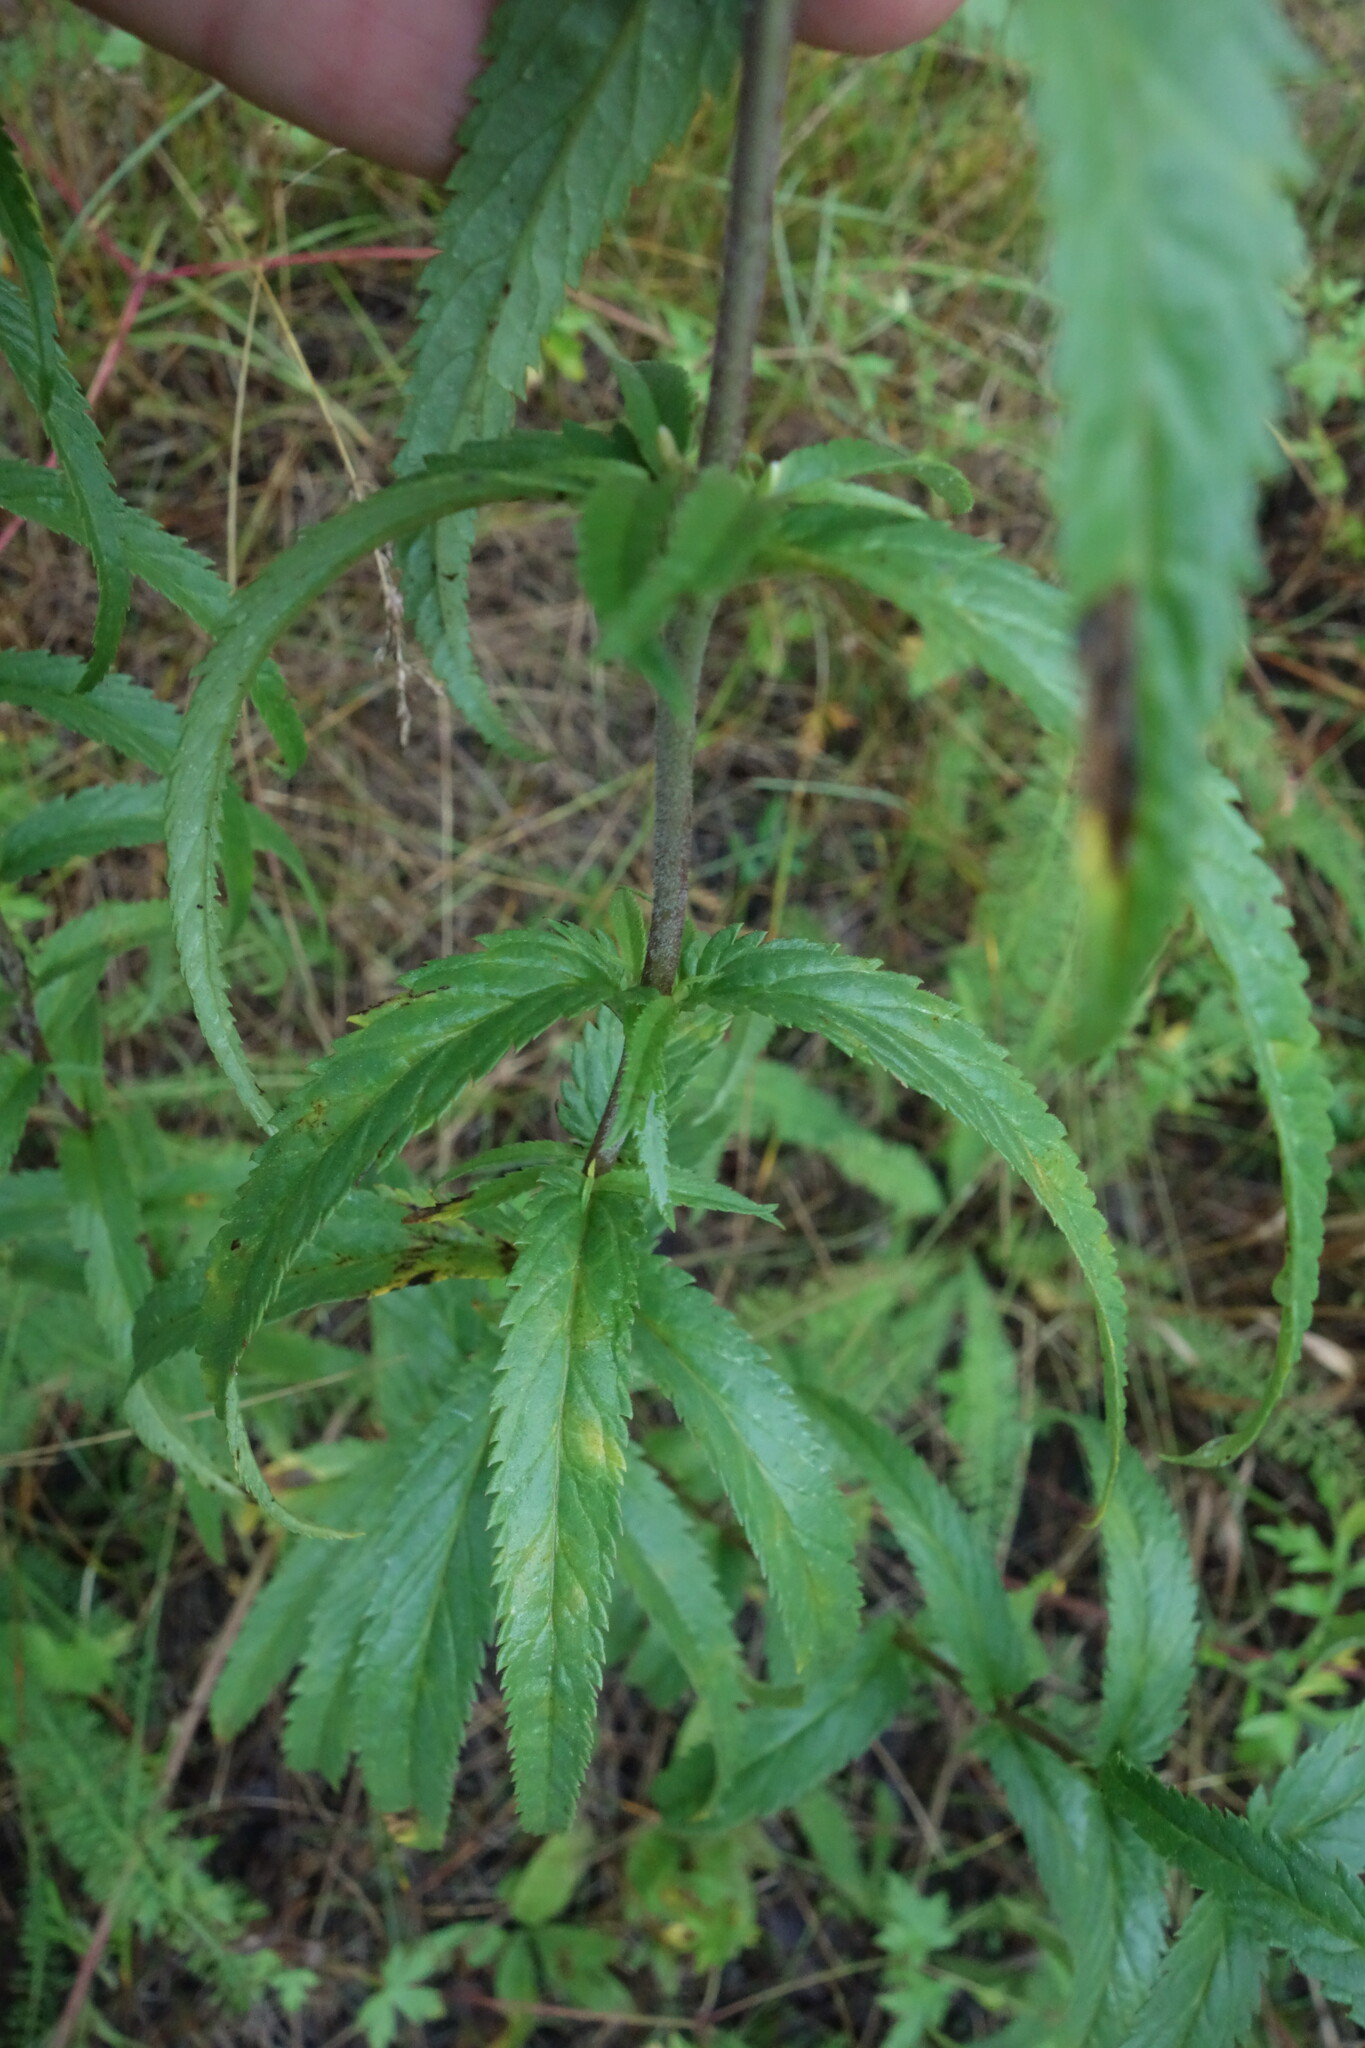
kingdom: Plantae
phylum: Tracheophyta
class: Magnoliopsida
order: Lamiales
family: Plantaginaceae
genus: Veronica
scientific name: Veronica longifolia
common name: Garden speedwell
